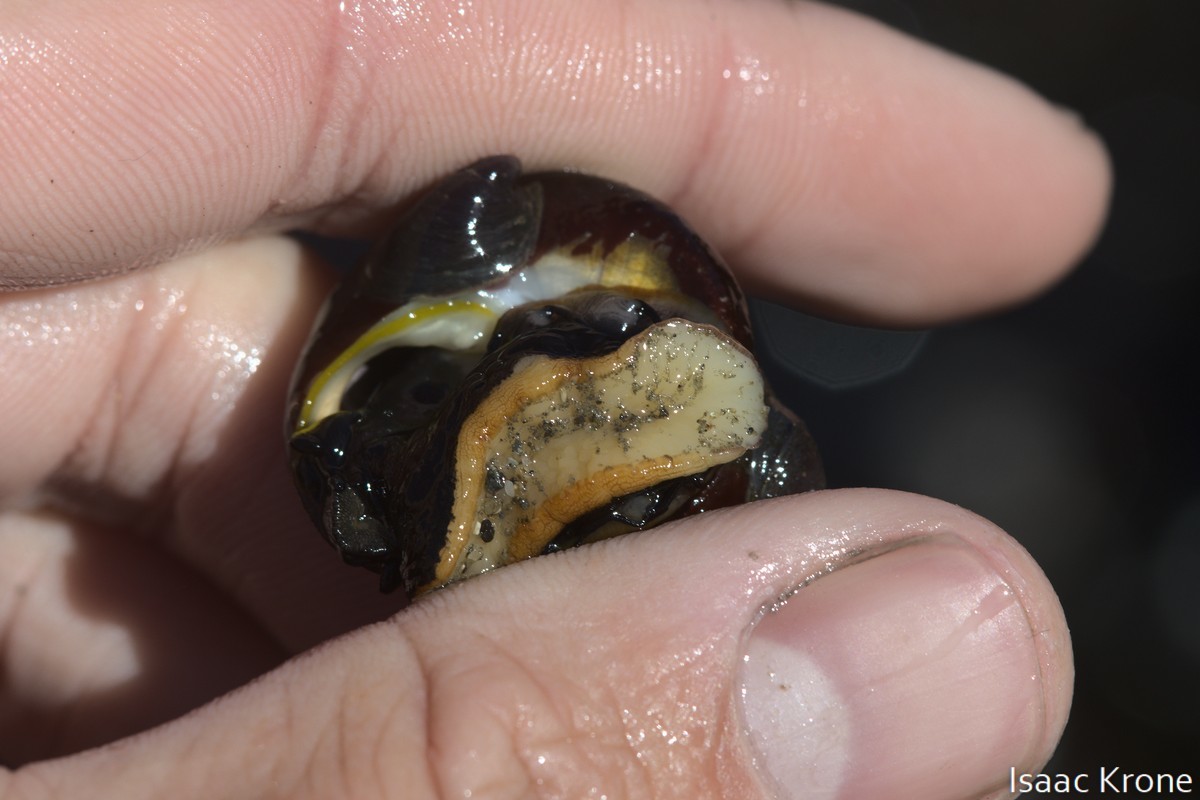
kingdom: Animalia
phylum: Mollusca
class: Gastropoda
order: Trochida
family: Tegulidae
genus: Tegula
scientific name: Tegula funebralis
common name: Black tegula
